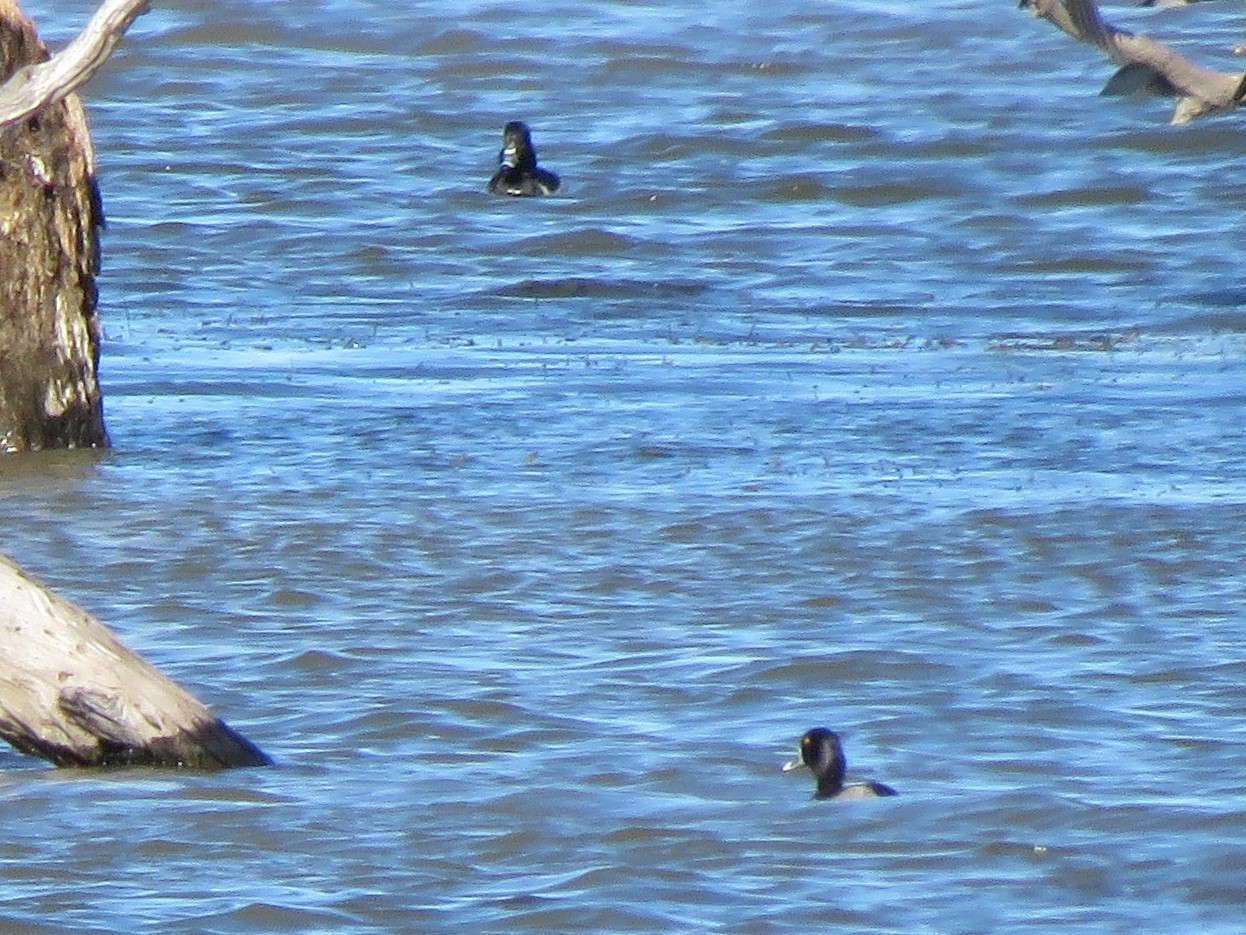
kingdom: Animalia
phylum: Chordata
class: Aves
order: Anseriformes
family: Anatidae
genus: Aythya
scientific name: Aythya collaris
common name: Ring-necked duck
